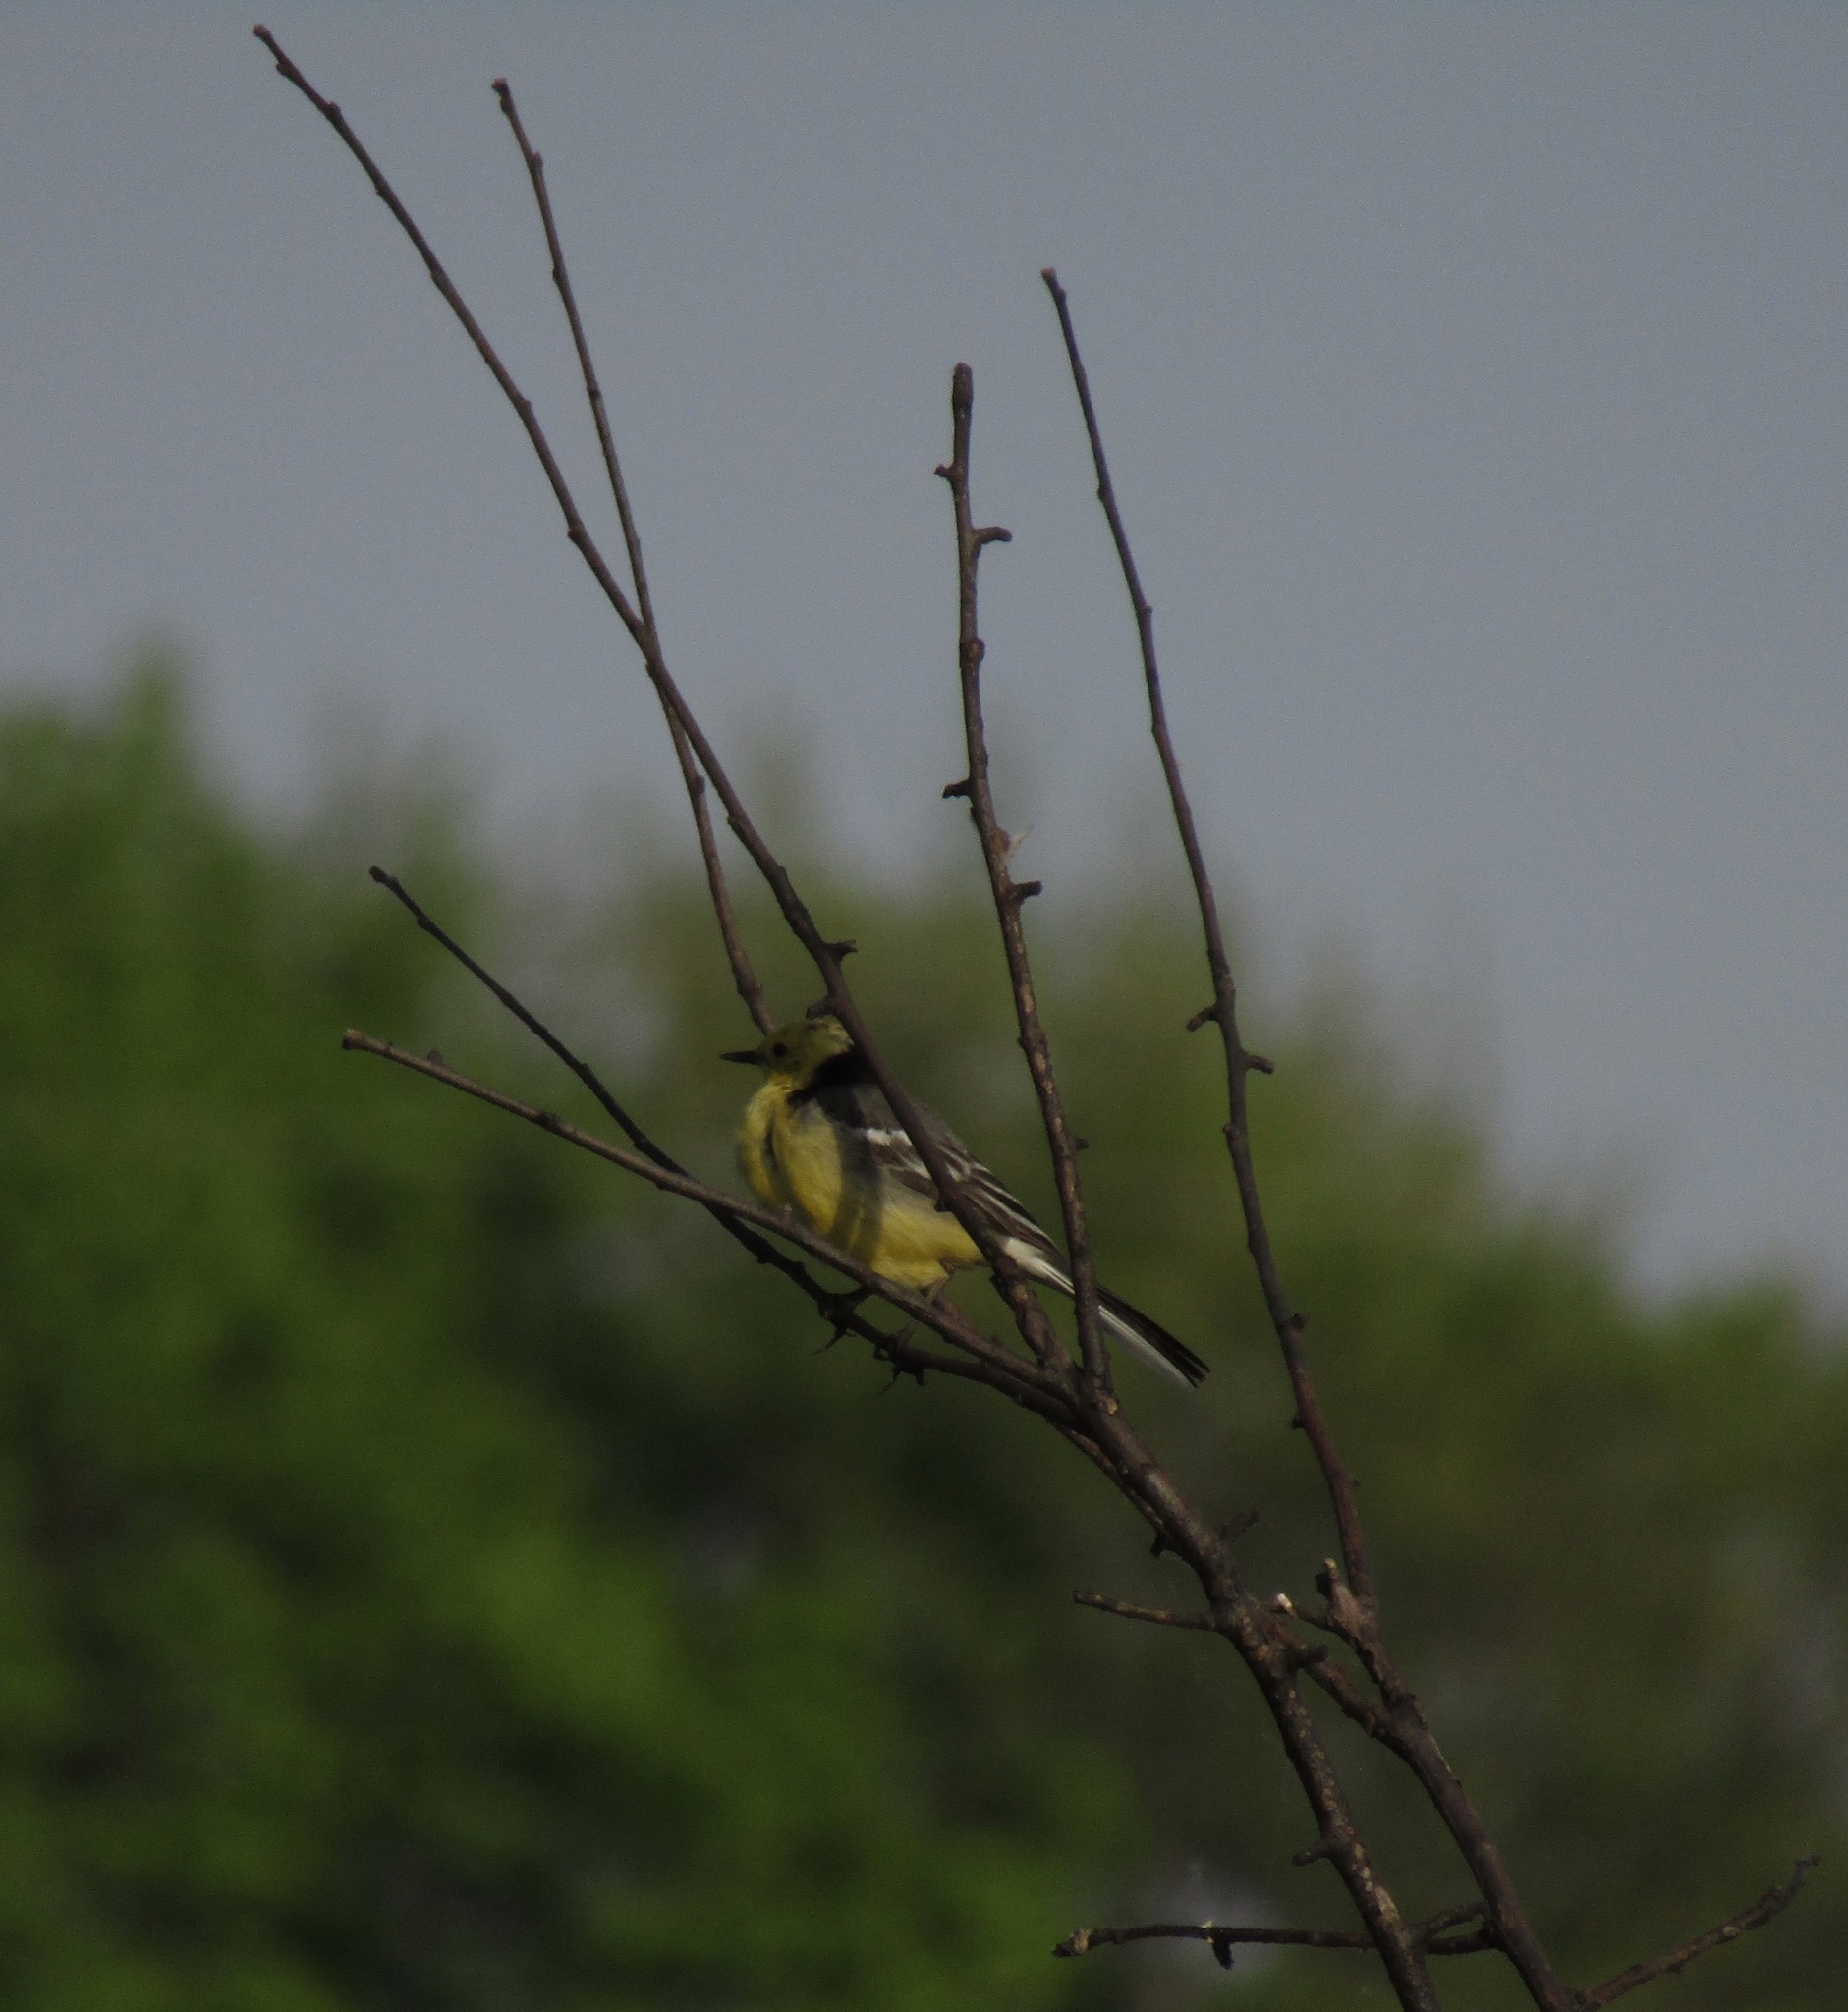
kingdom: Animalia
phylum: Chordata
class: Aves
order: Passeriformes
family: Motacillidae
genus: Motacilla
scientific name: Motacilla citreola
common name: Citrine wagtail
